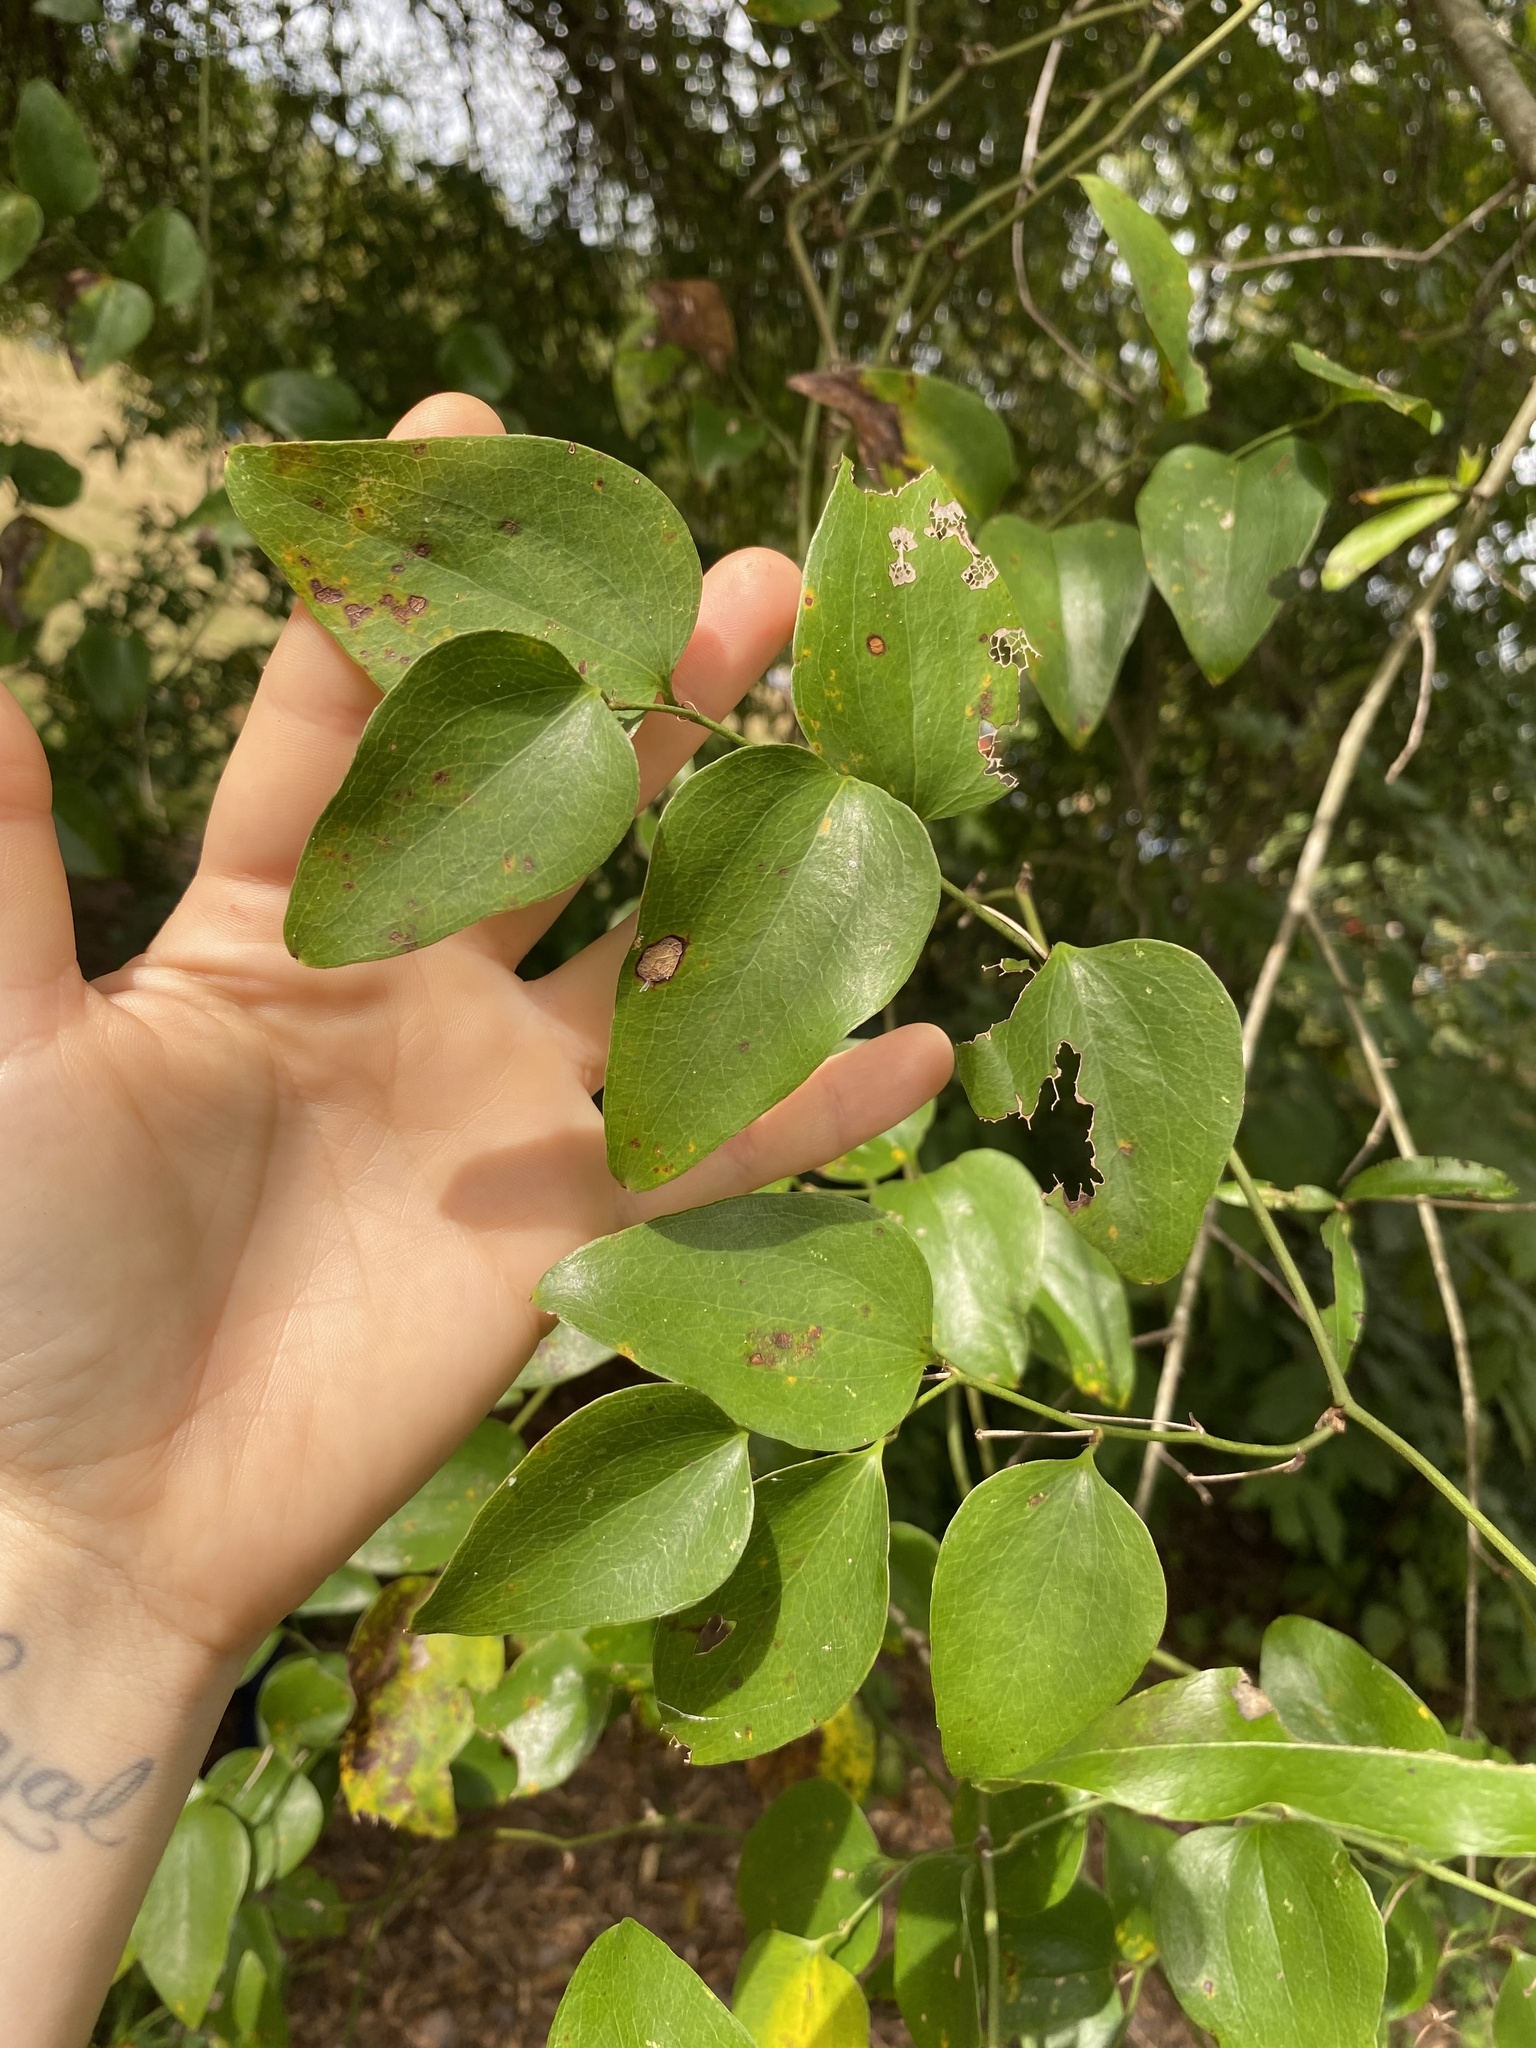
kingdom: Plantae
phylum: Tracheophyta
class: Liliopsida
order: Liliales
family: Smilacaceae
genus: Smilax
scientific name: Smilax rotundifolia
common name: Bullbriar
